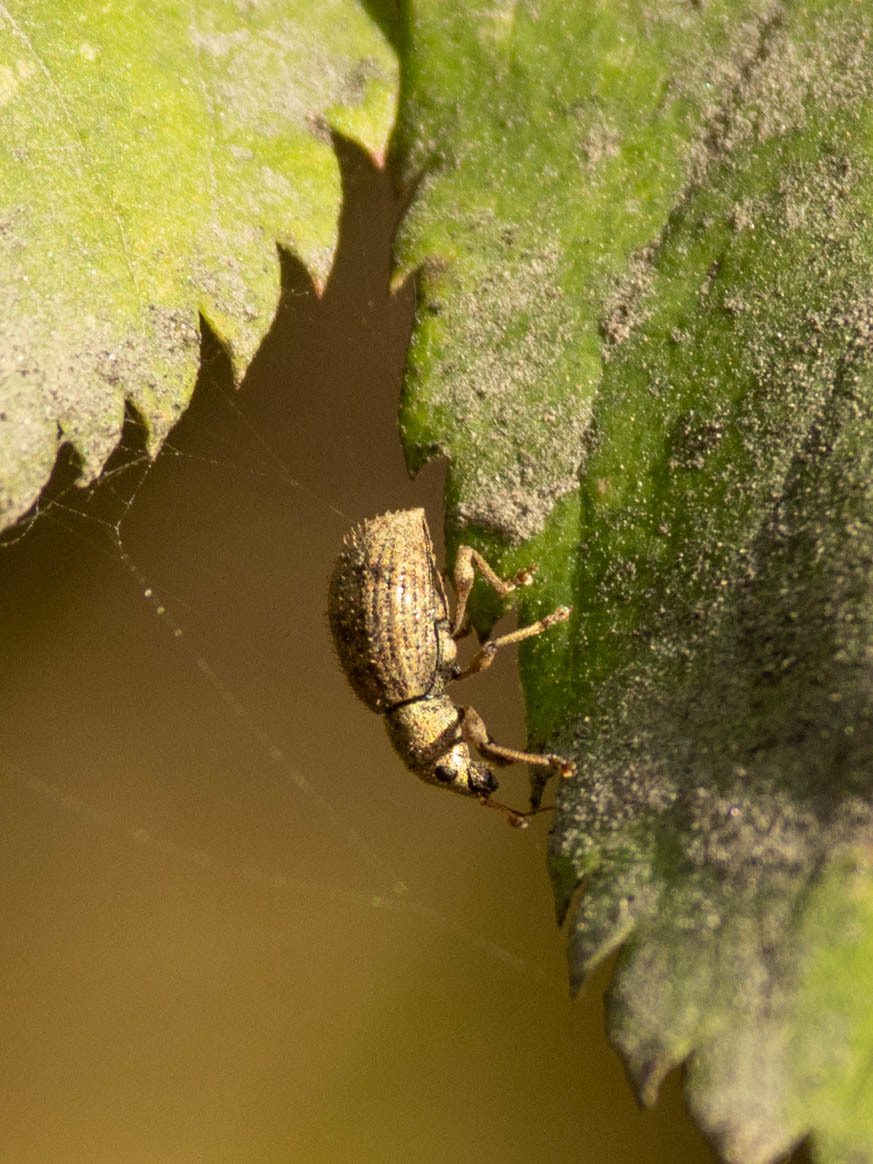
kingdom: Animalia
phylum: Arthropoda
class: Insecta
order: Coleoptera
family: Curculionidae
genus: Sciaphilus
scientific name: Sciaphilus asperatus
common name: Weevil
